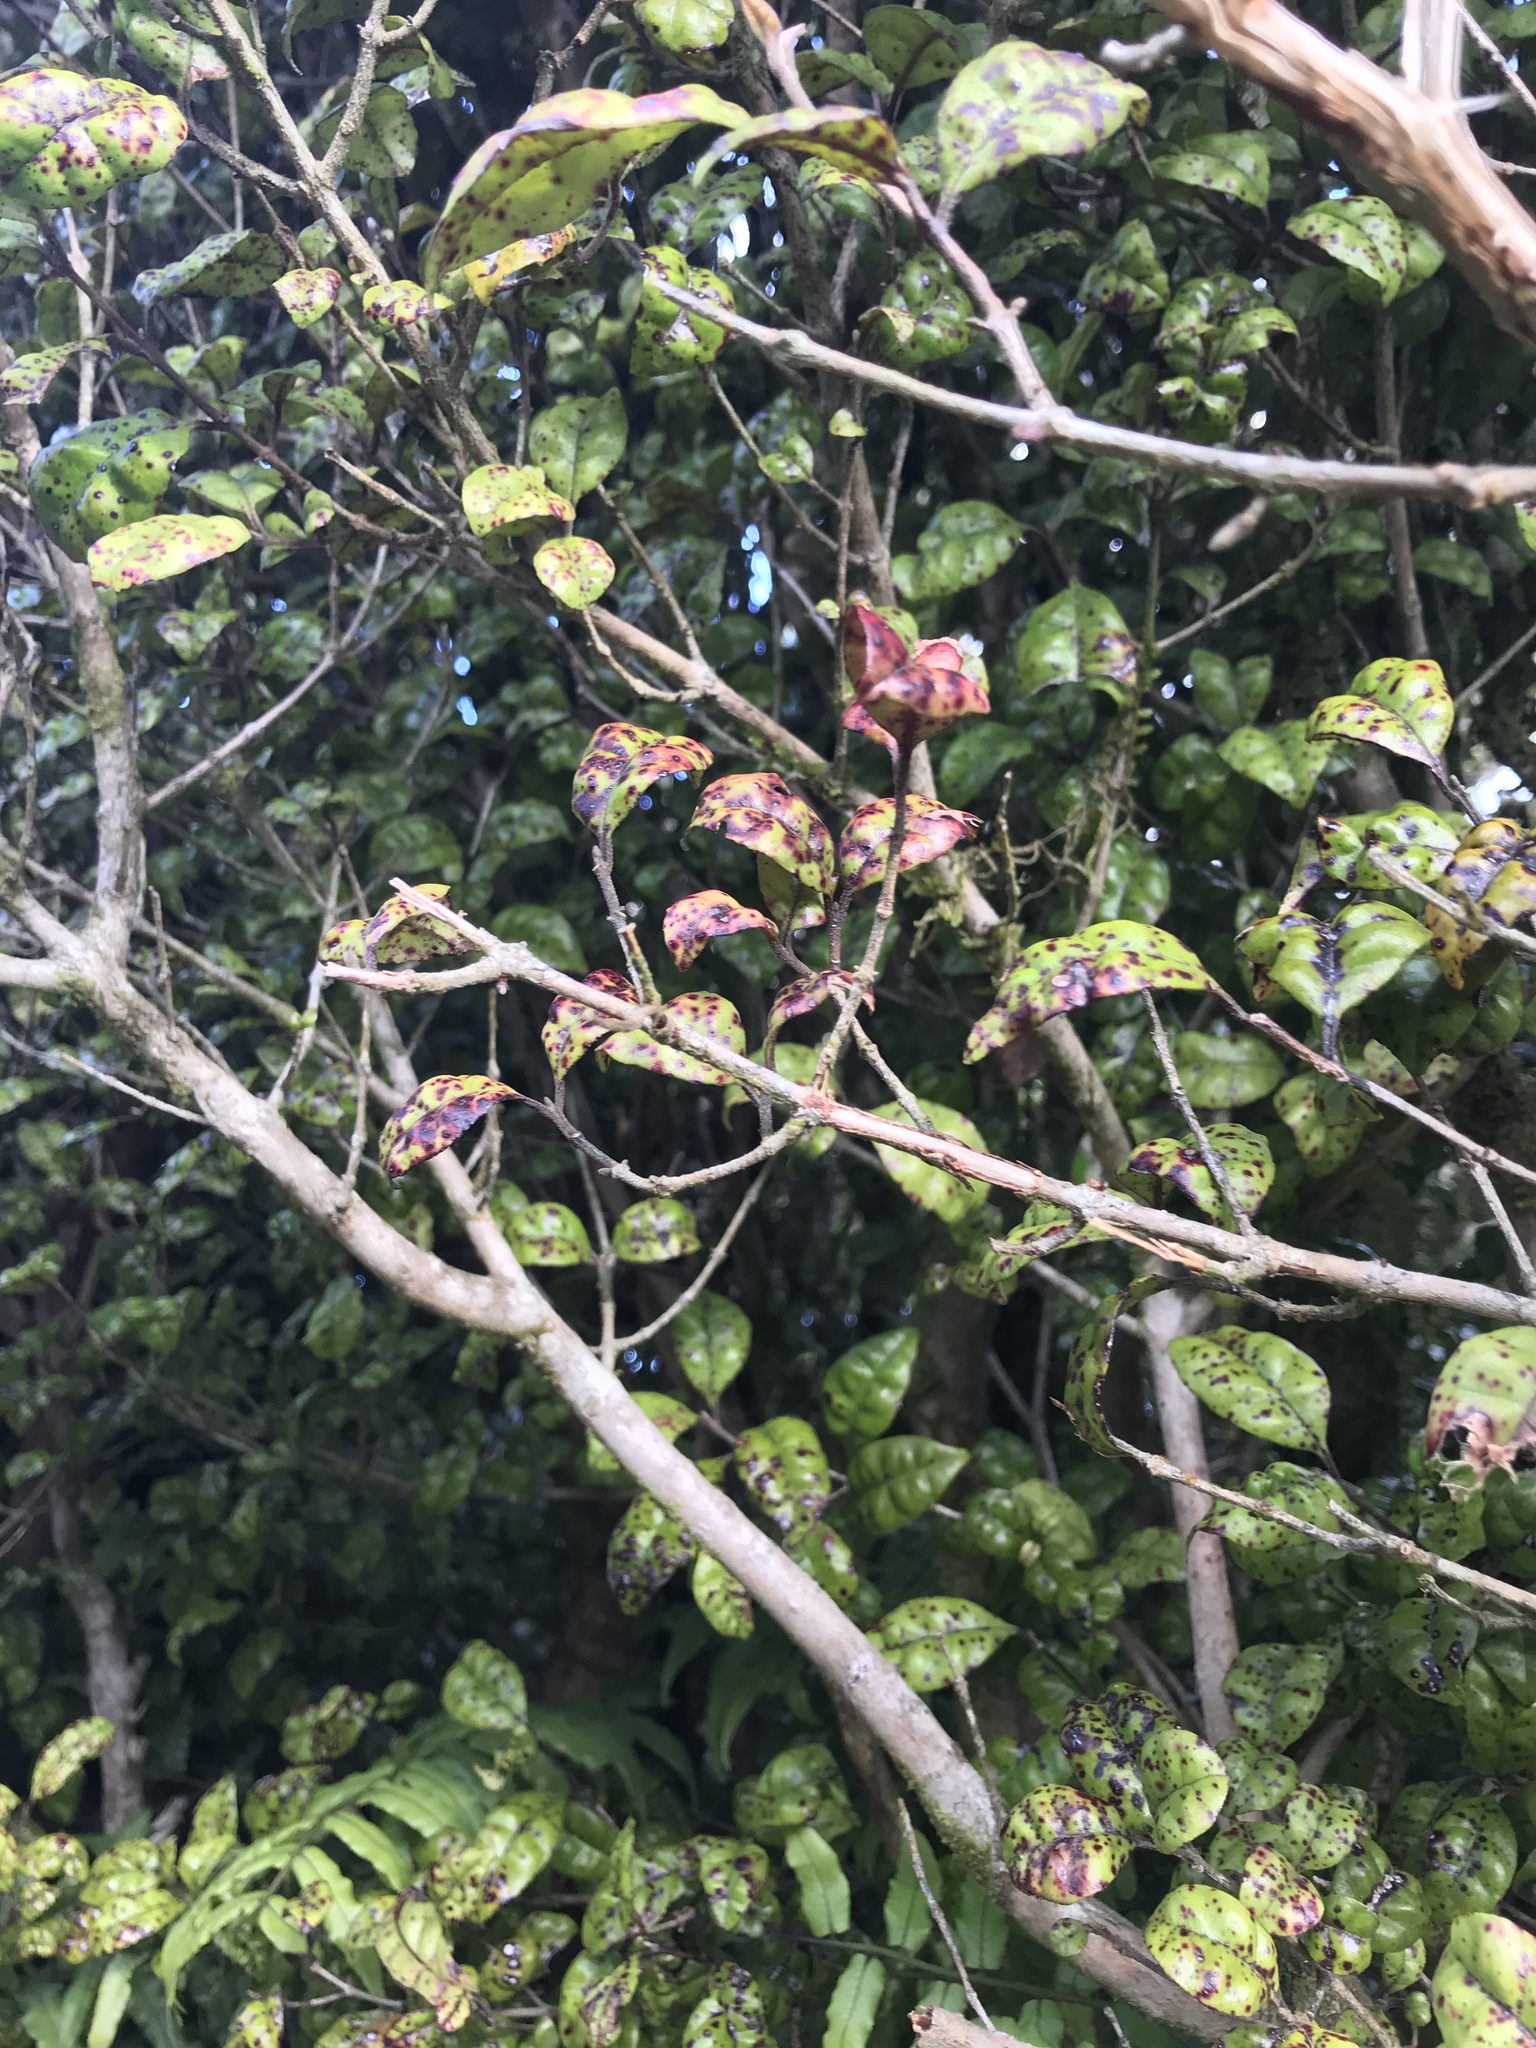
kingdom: Plantae
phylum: Tracheophyta
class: Magnoliopsida
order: Myrtales
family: Myrtaceae
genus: Lophomyrtus
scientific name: Lophomyrtus bullata
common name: Rama rama
